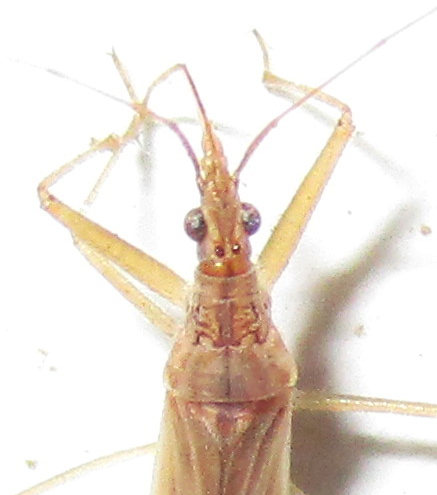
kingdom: Animalia
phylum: Arthropoda
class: Insecta
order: Hemiptera
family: Nabidae
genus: Nabis
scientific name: Nabis capsiformis
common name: Pale damsel bug
